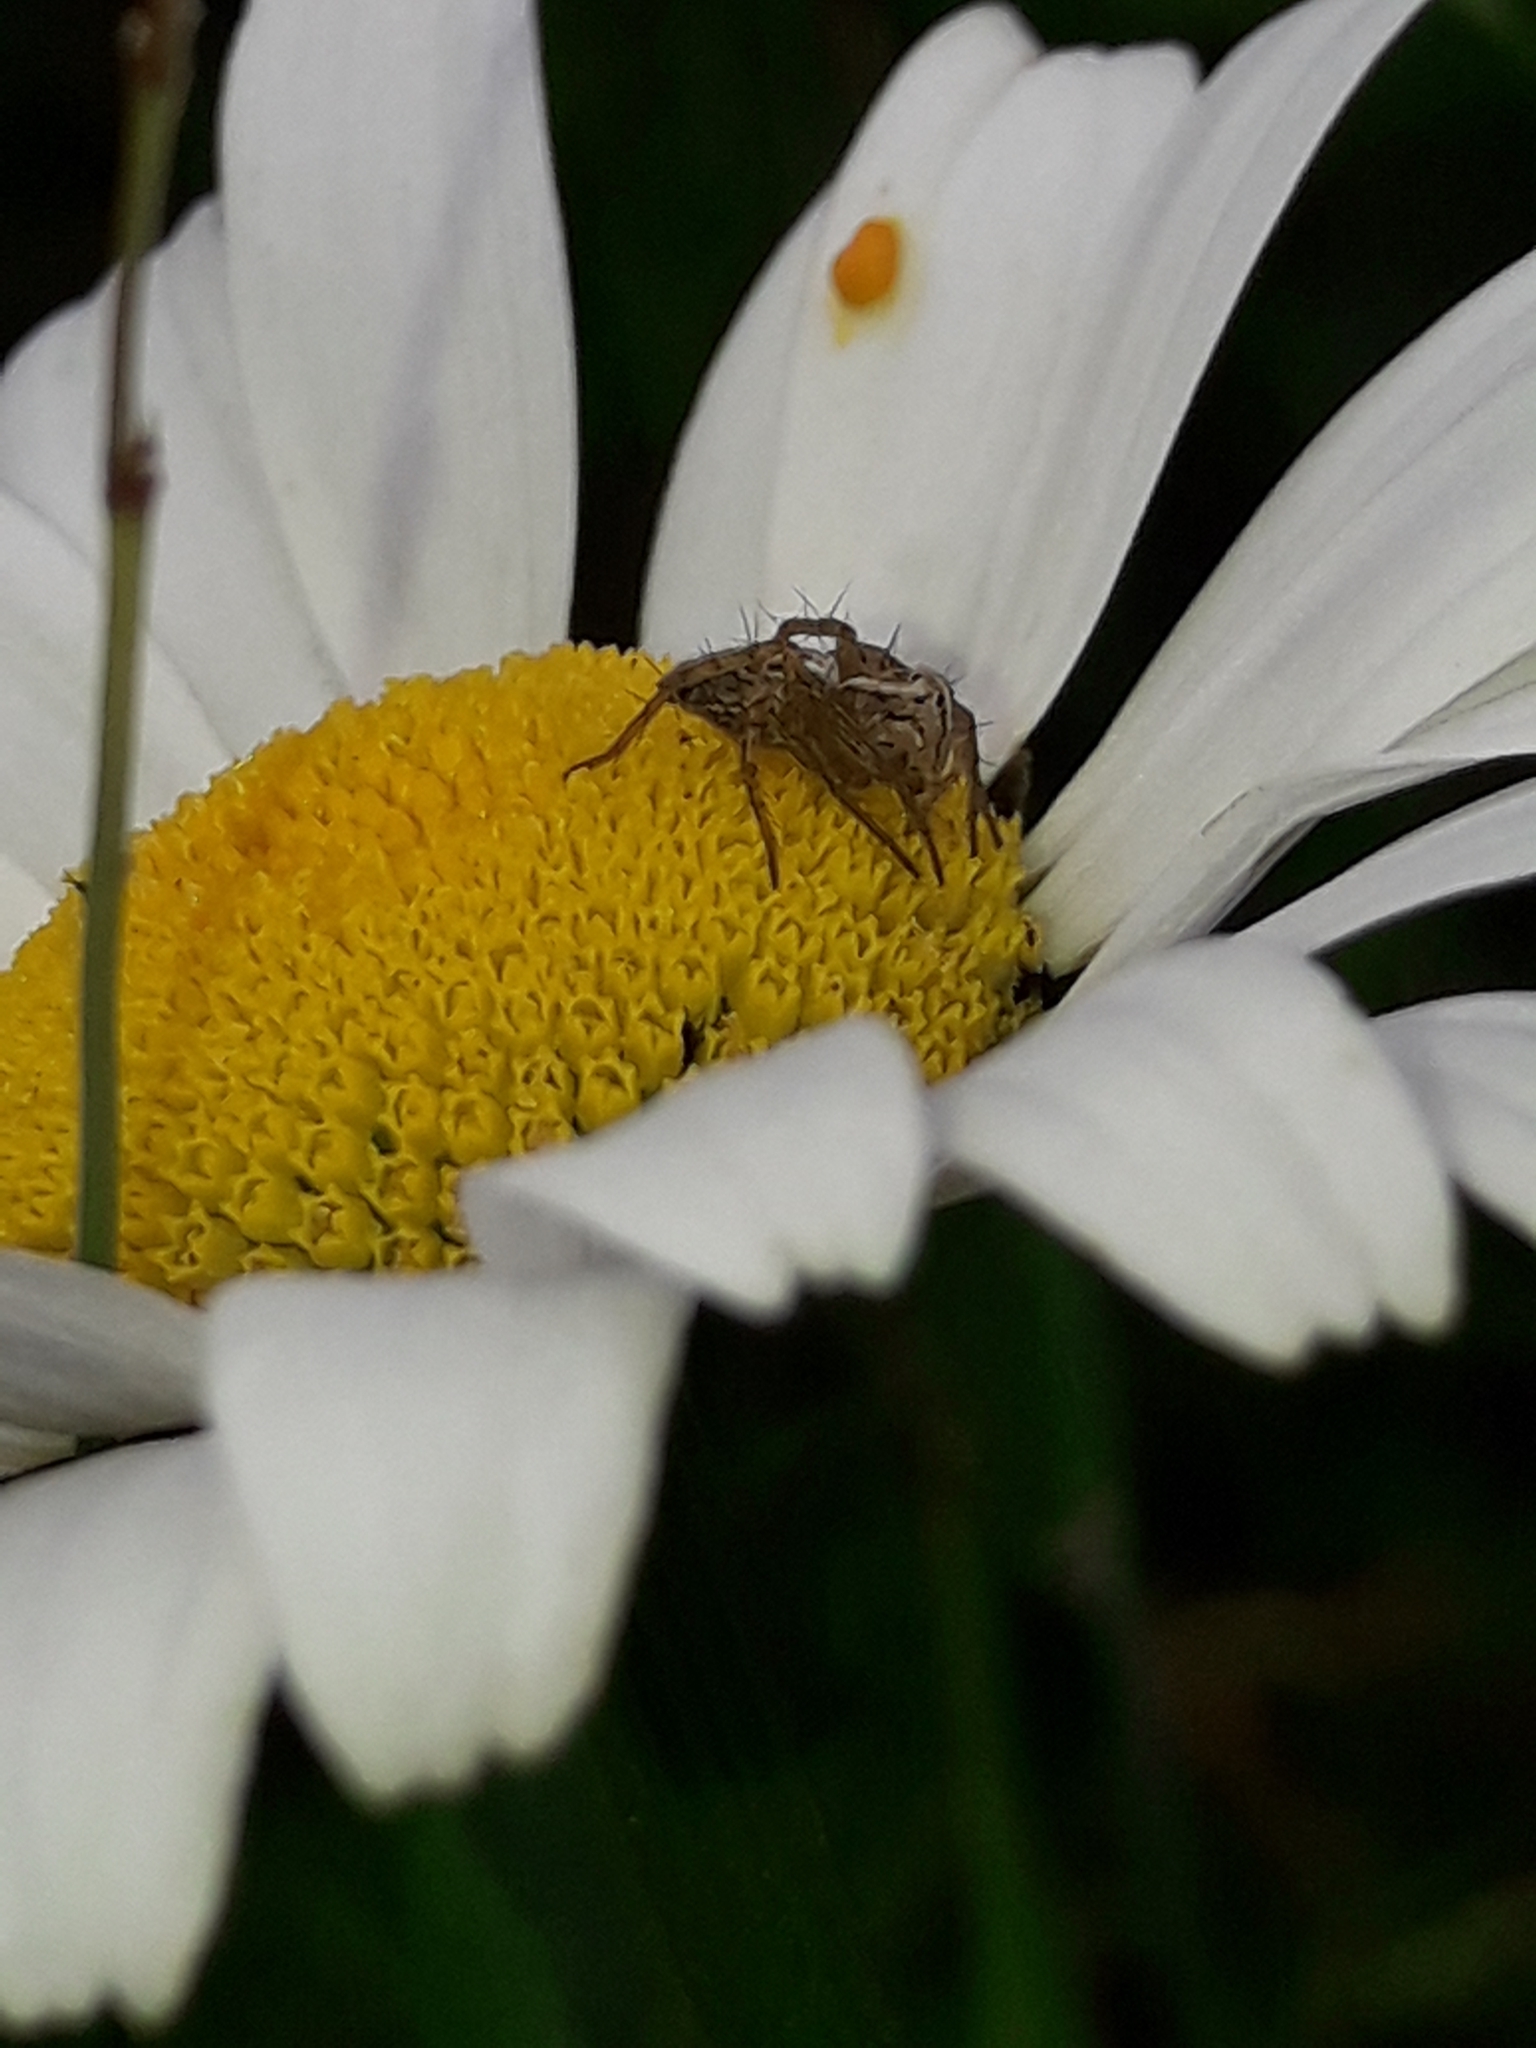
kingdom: Animalia
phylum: Arthropoda
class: Arachnida
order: Araneae
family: Oxyopidae
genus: Oxyopes
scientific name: Oxyopes gracilipes
